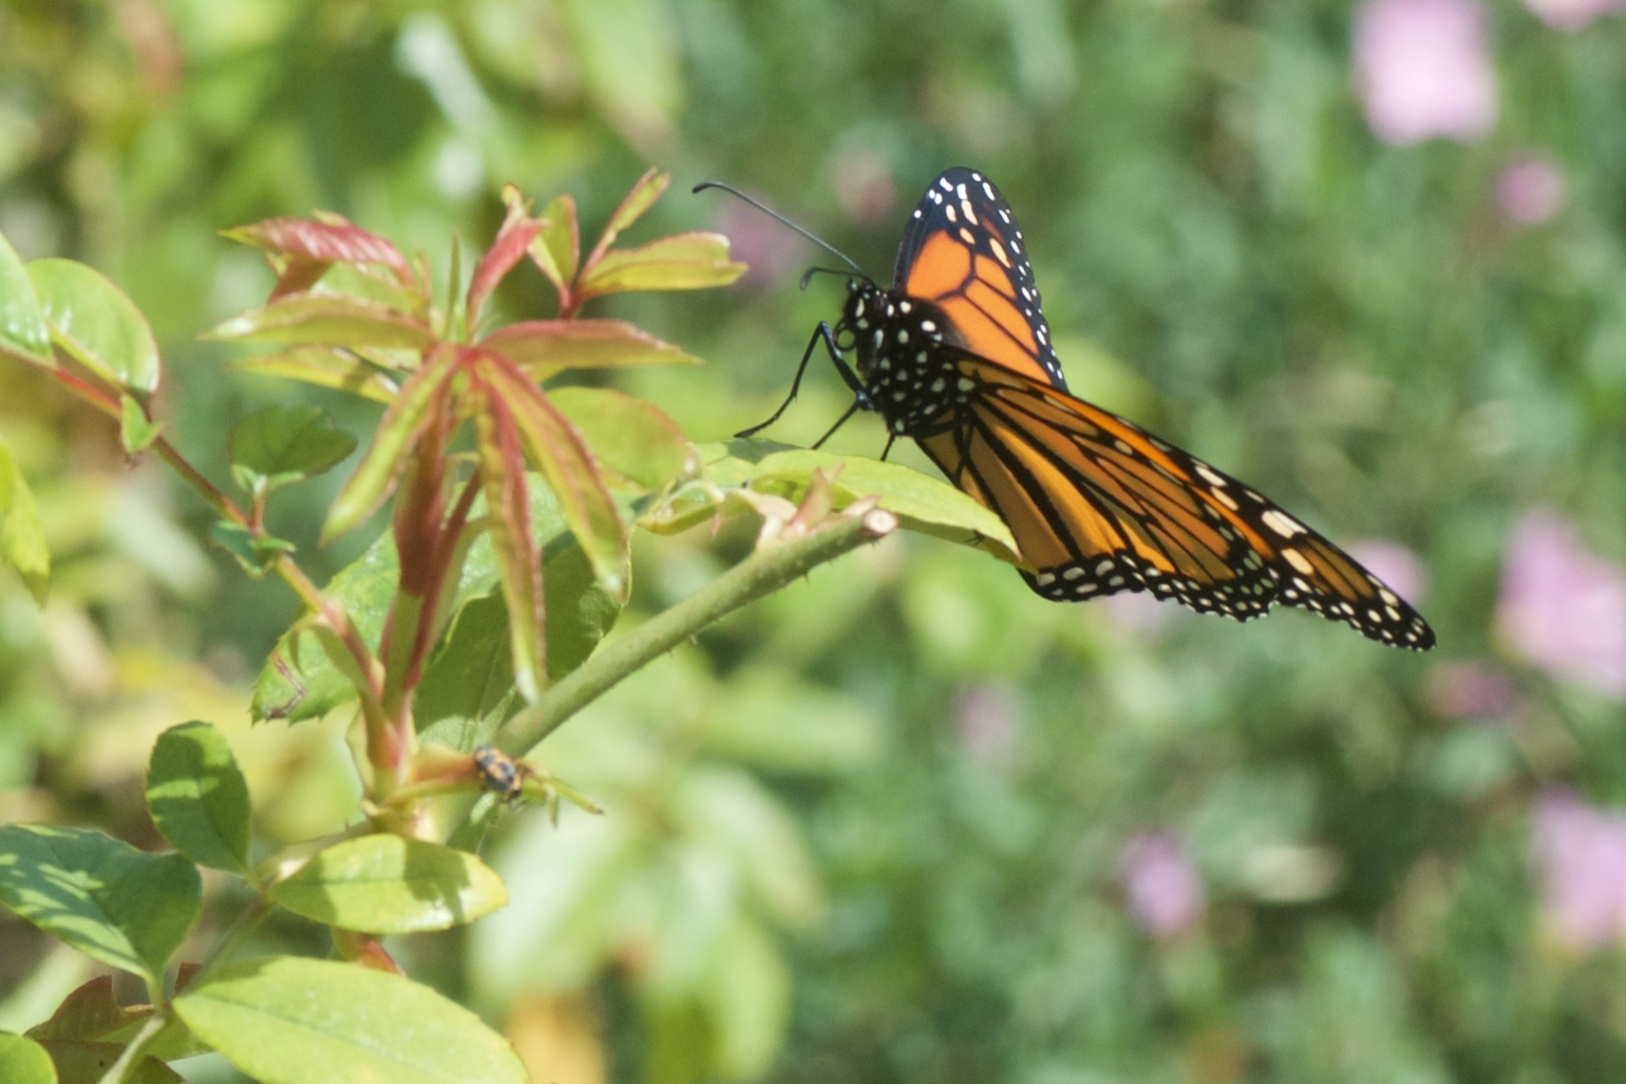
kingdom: Animalia
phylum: Arthropoda
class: Insecta
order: Lepidoptera
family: Nymphalidae
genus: Danaus
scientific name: Danaus plexippus
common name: Monarch
